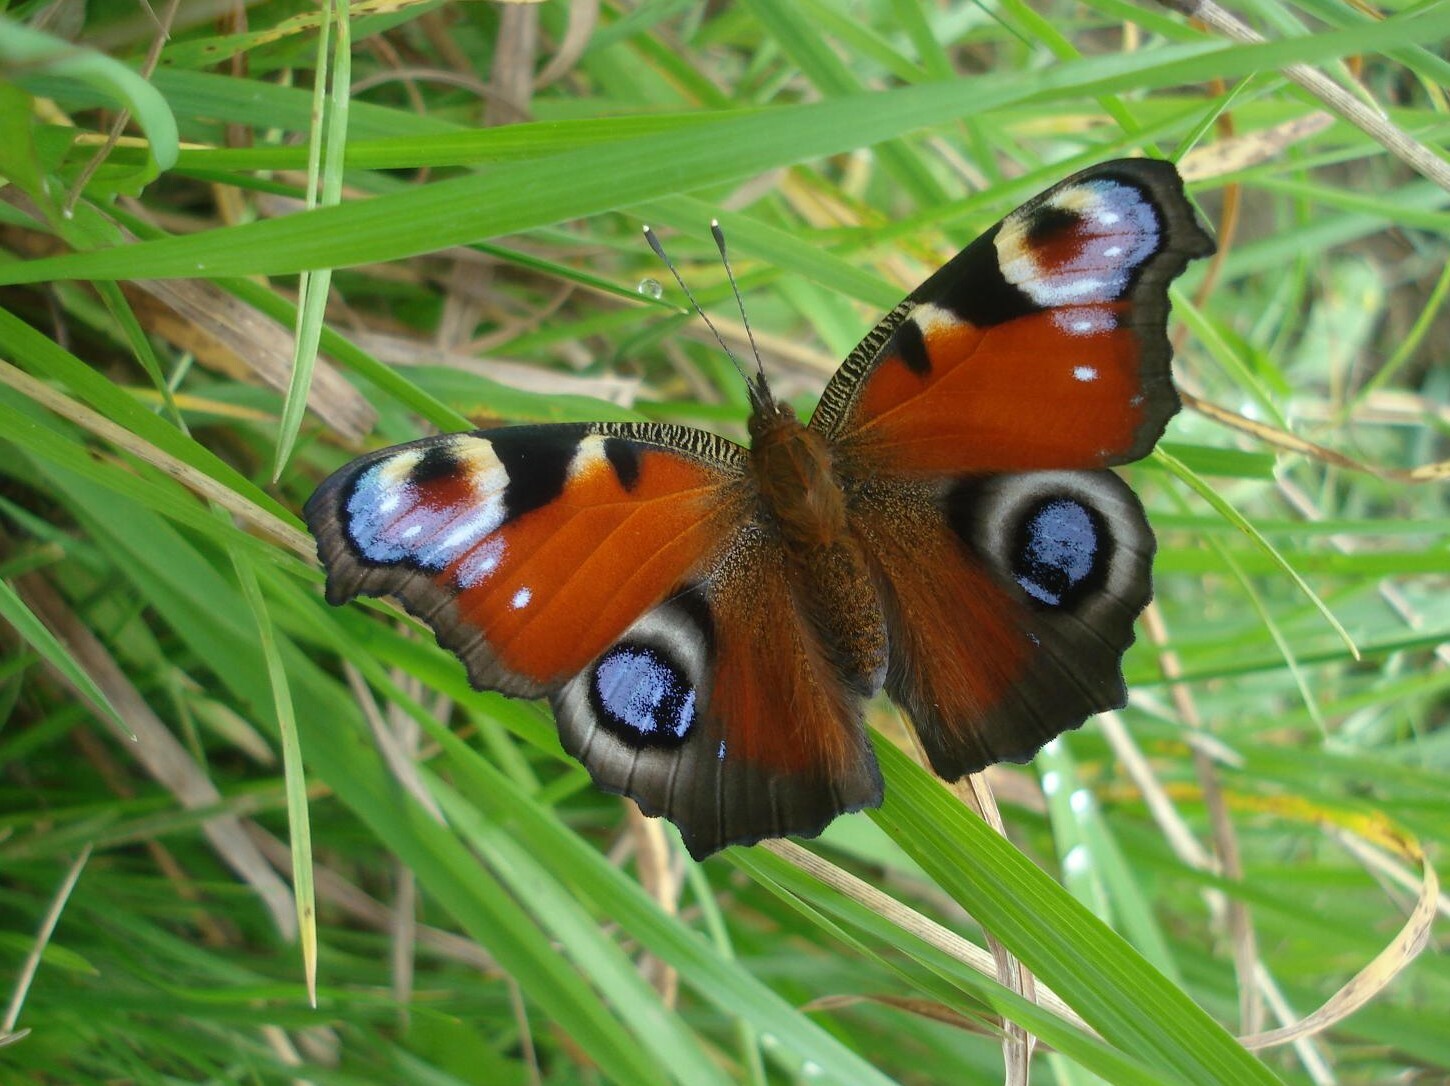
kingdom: Animalia
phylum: Arthropoda
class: Insecta
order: Lepidoptera
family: Nymphalidae
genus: Aglais
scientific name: Aglais io
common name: Peacock
